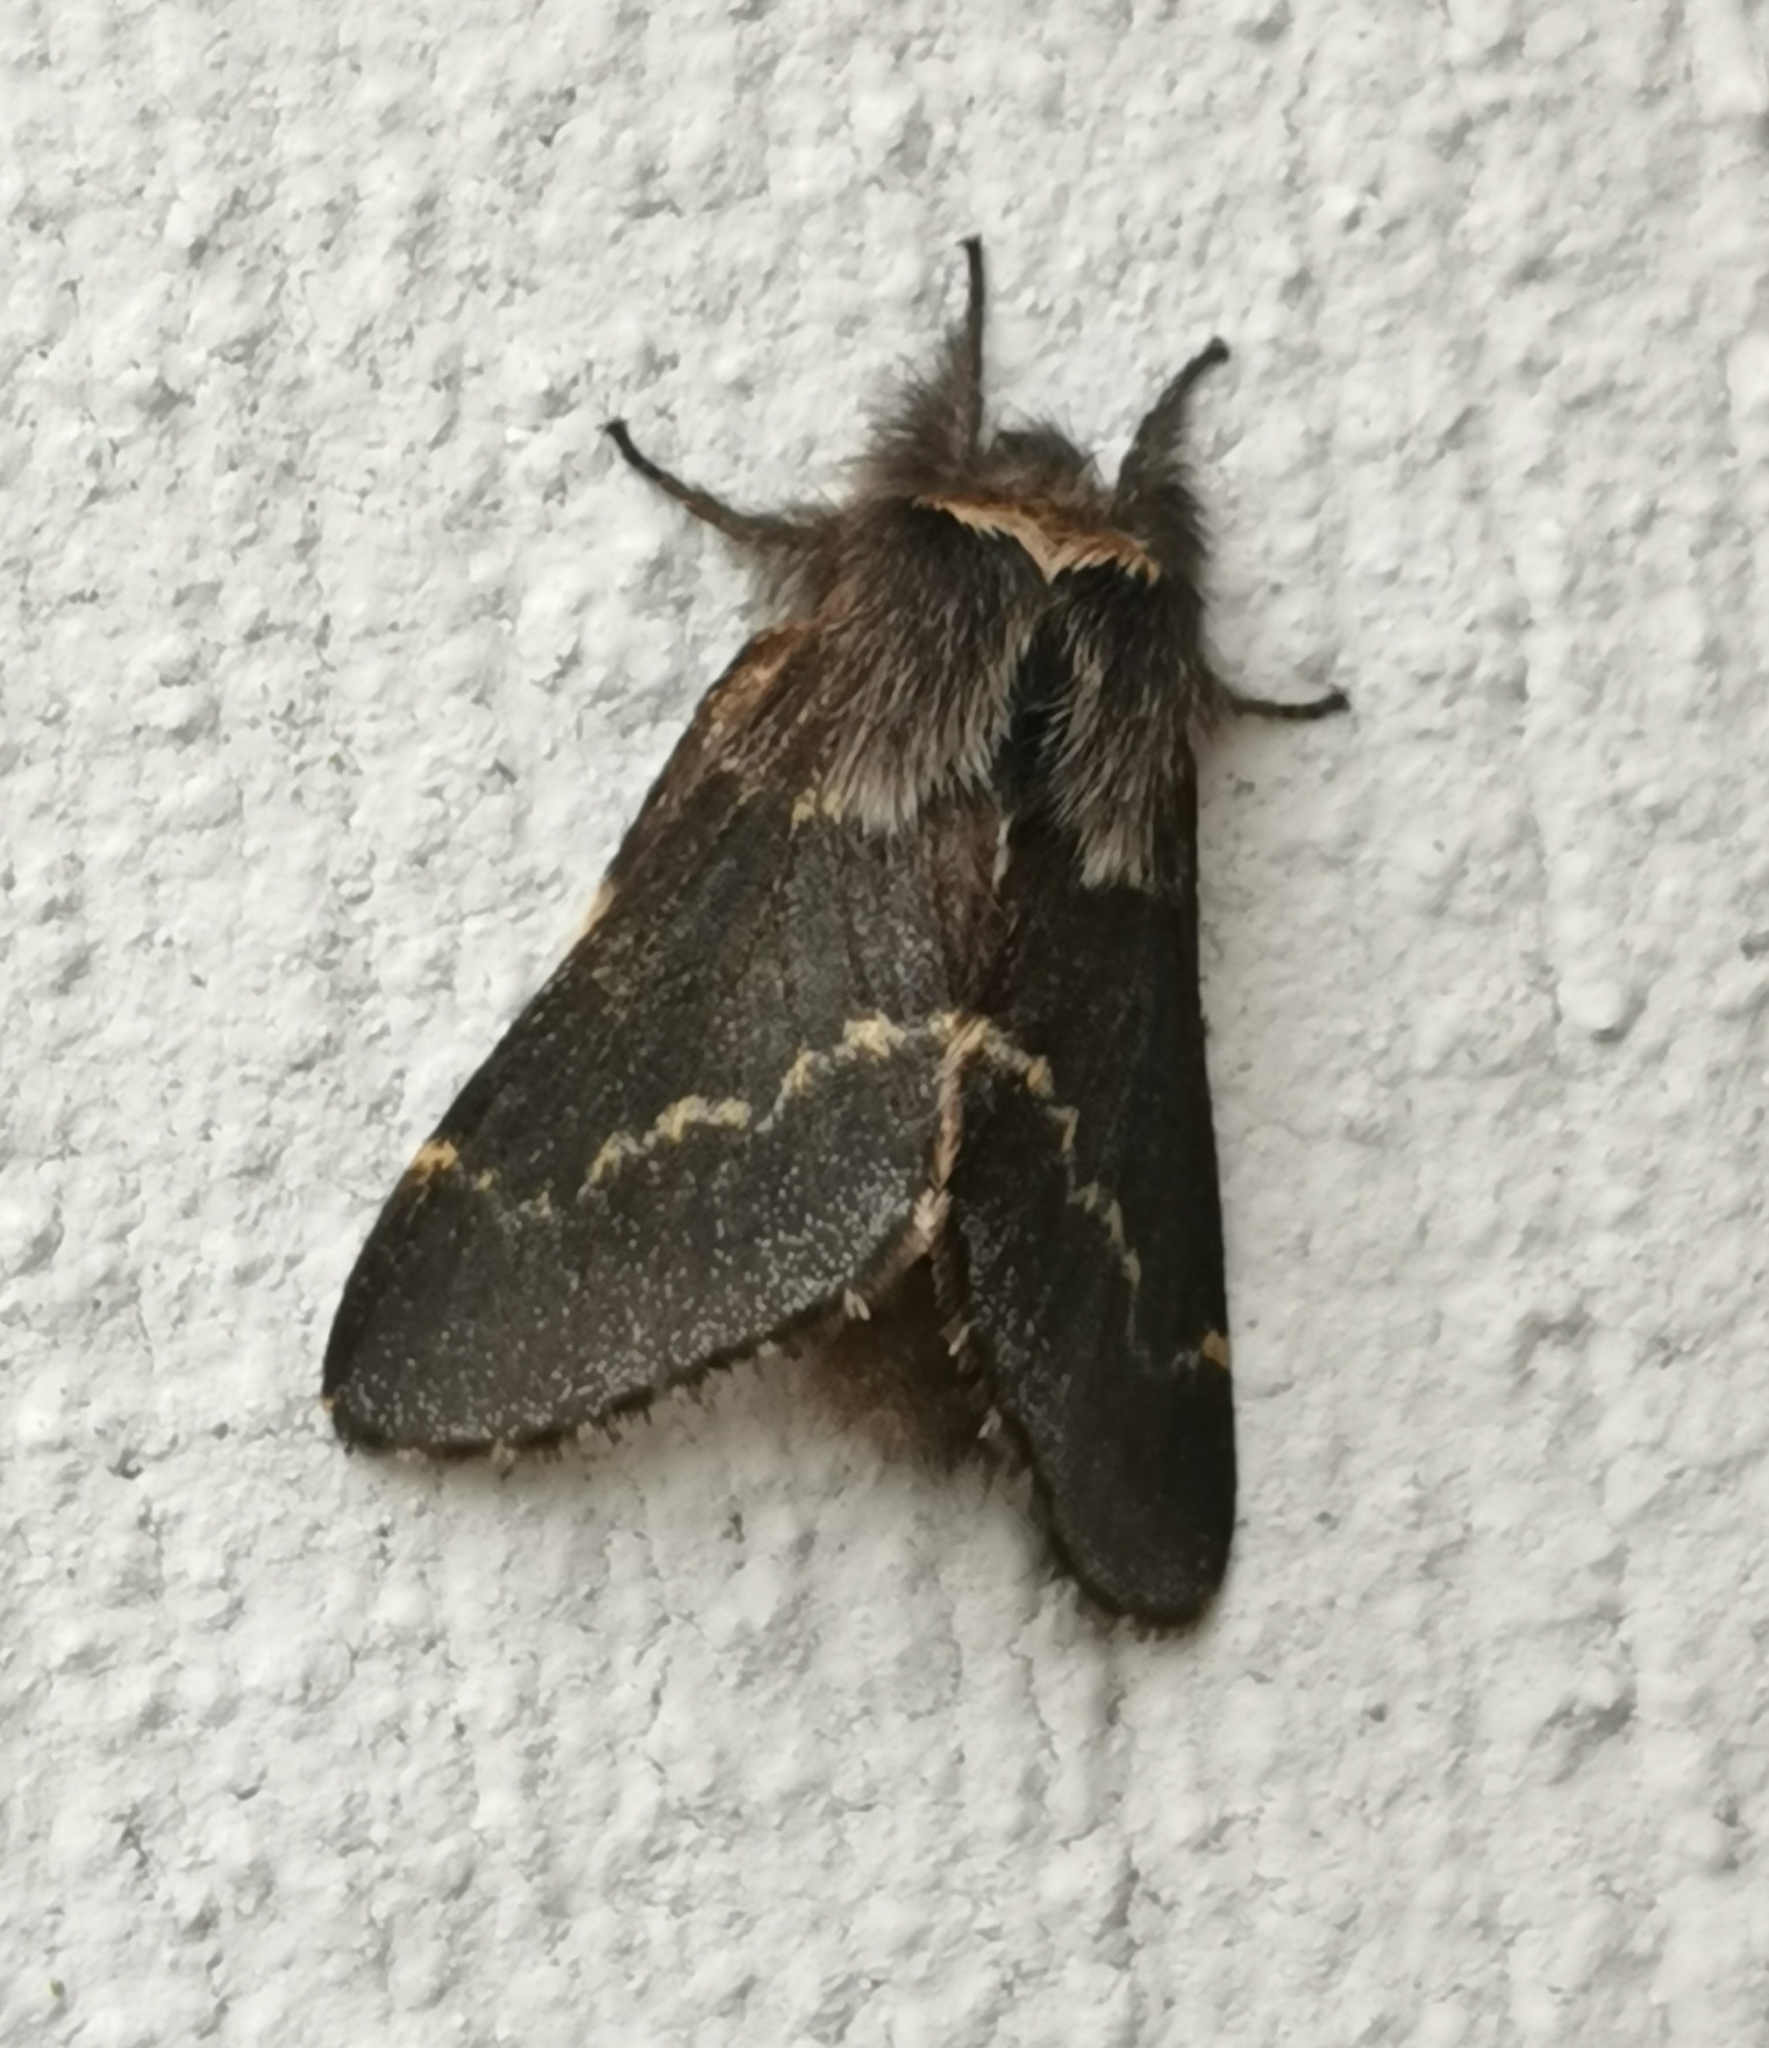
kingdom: Animalia
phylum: Arthropoda
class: Insecta
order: Lepidoptera
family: Lasiocampidae
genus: Poecilocampa
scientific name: Poecilocampa populi
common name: December moth
